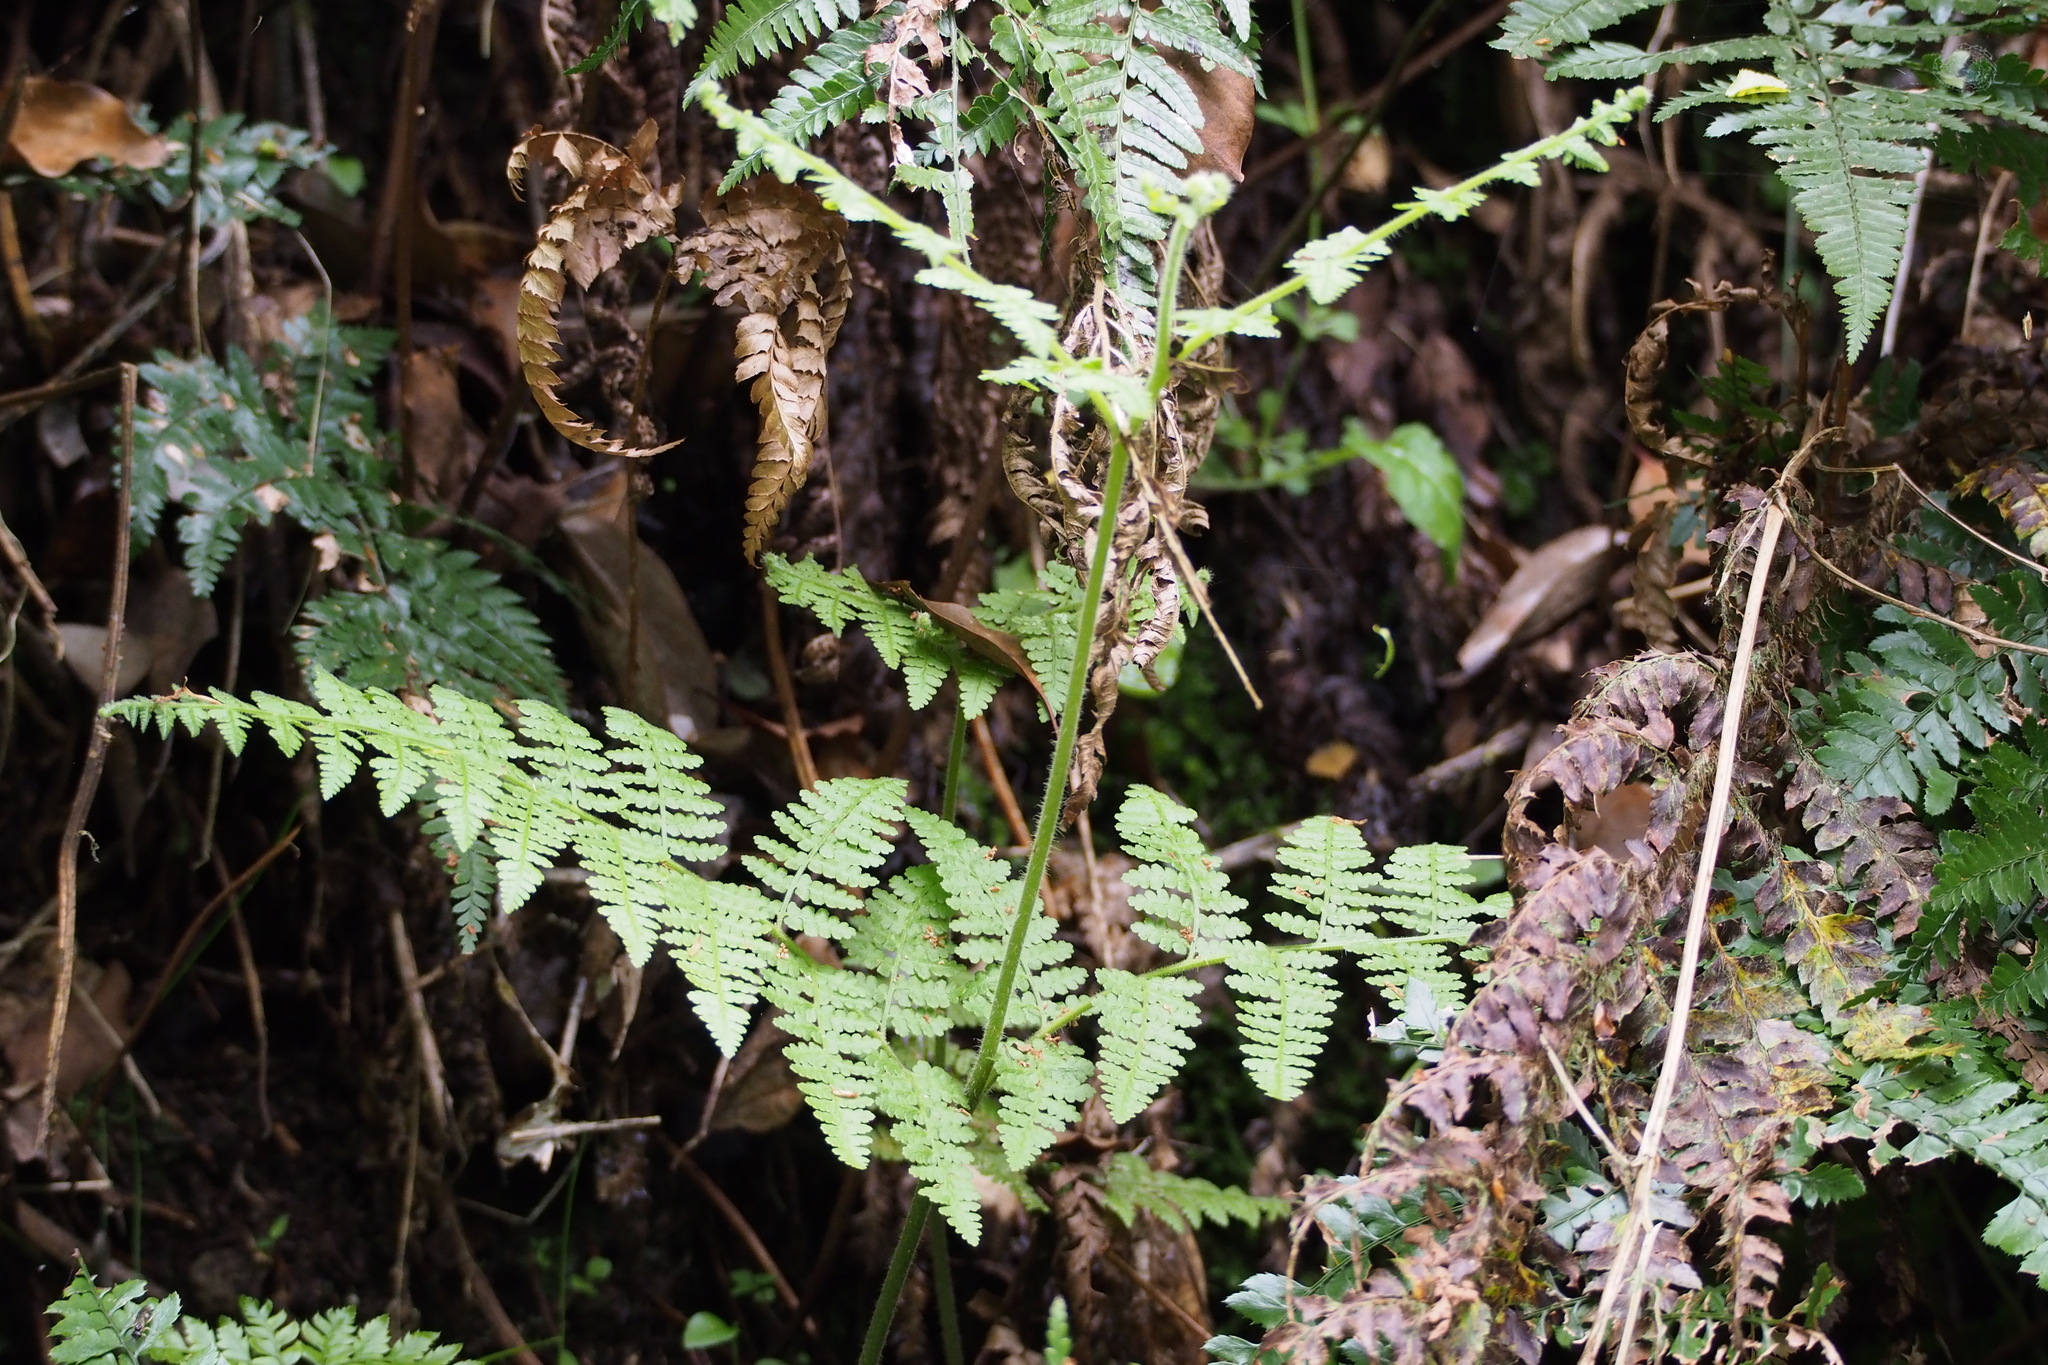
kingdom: Plantae
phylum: Tracheophyta
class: Polypodiopsida
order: Polypodiales
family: Dennstaedtiaceae
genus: Hypolepis
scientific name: Hypolepis punctata
